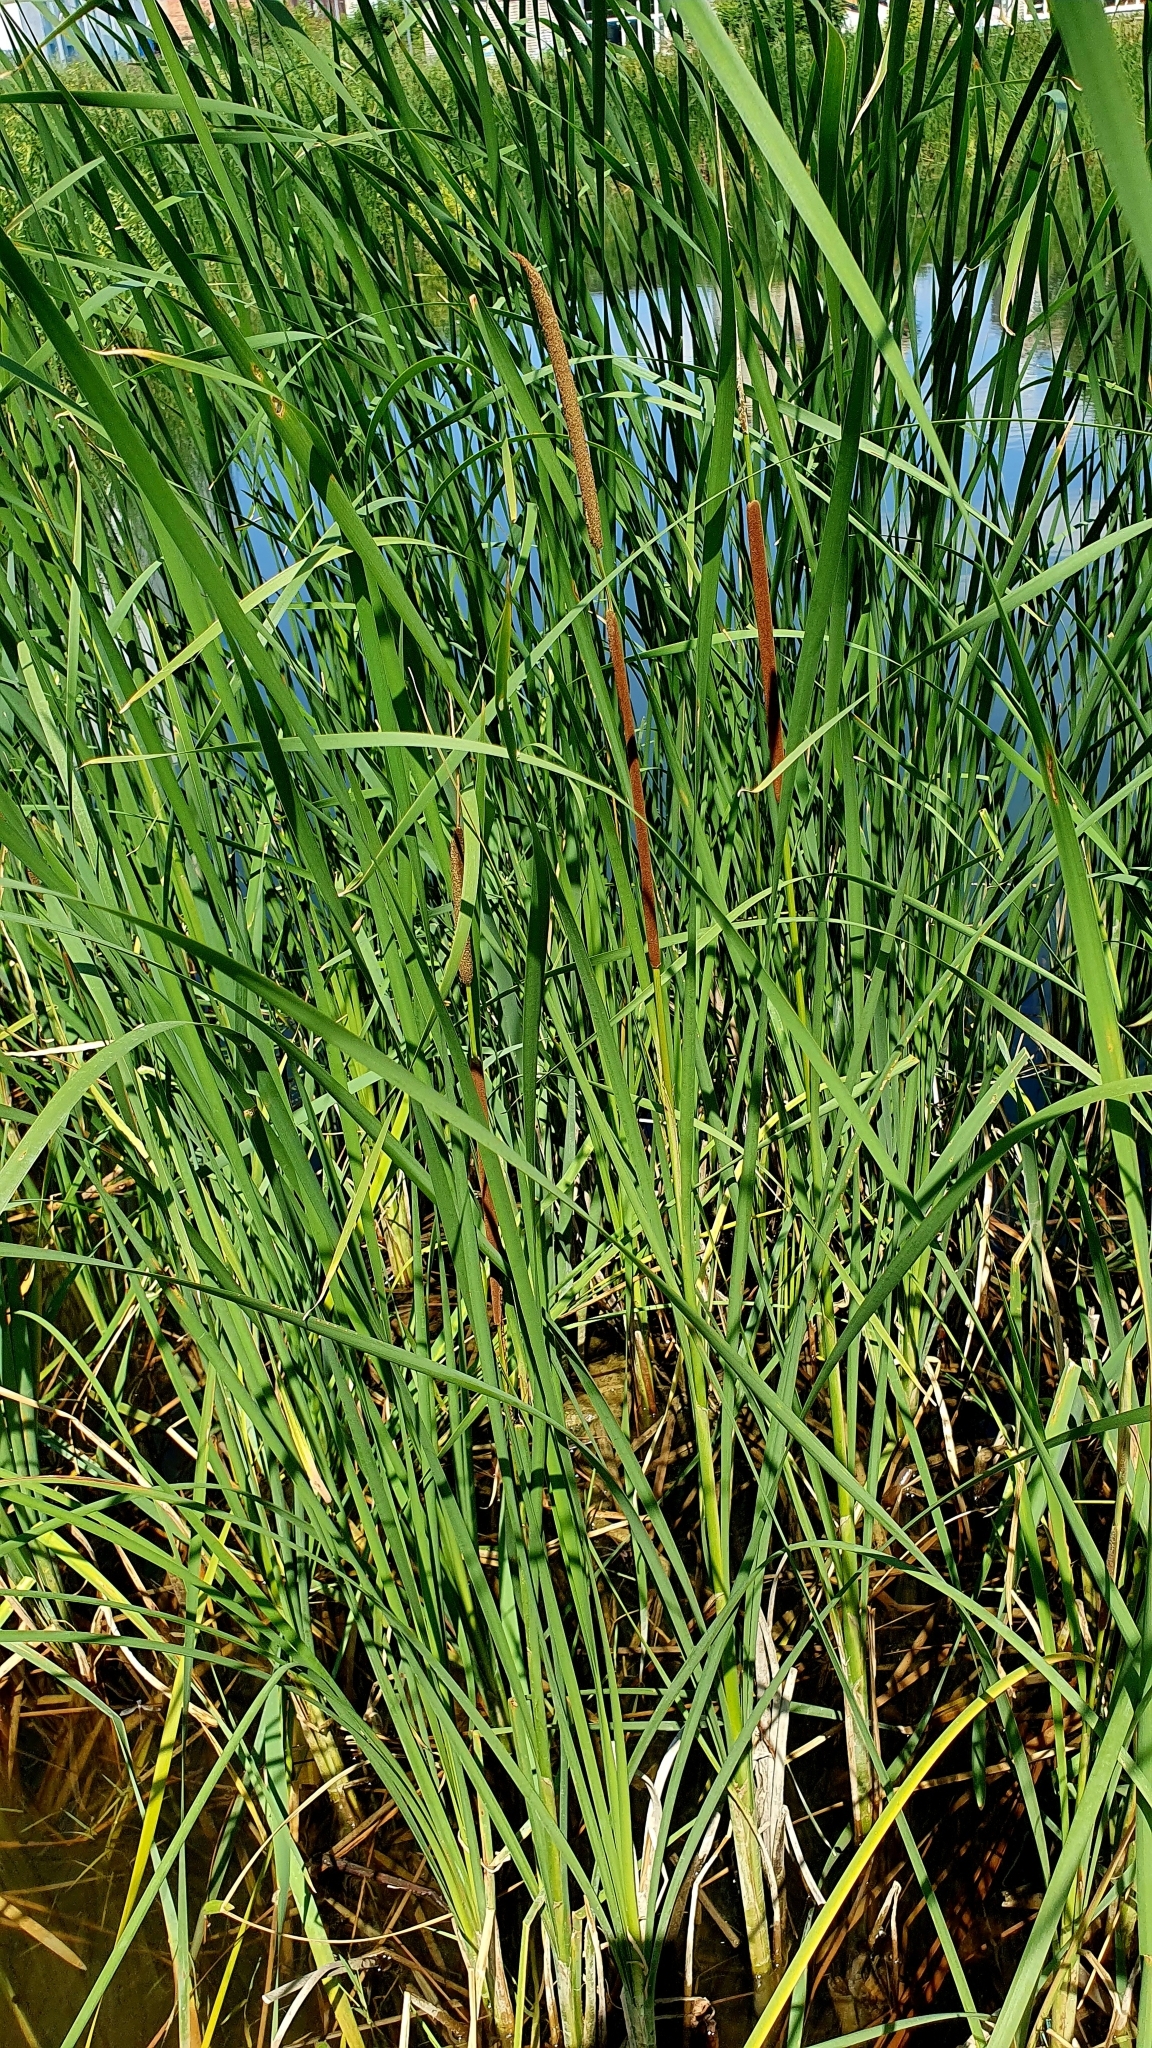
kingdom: Plantae
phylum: Tracheophyta
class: Liliopsida
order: Poales
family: Typhaceae
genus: Typha
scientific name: Typha angustifolia
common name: Lesser bulrush
